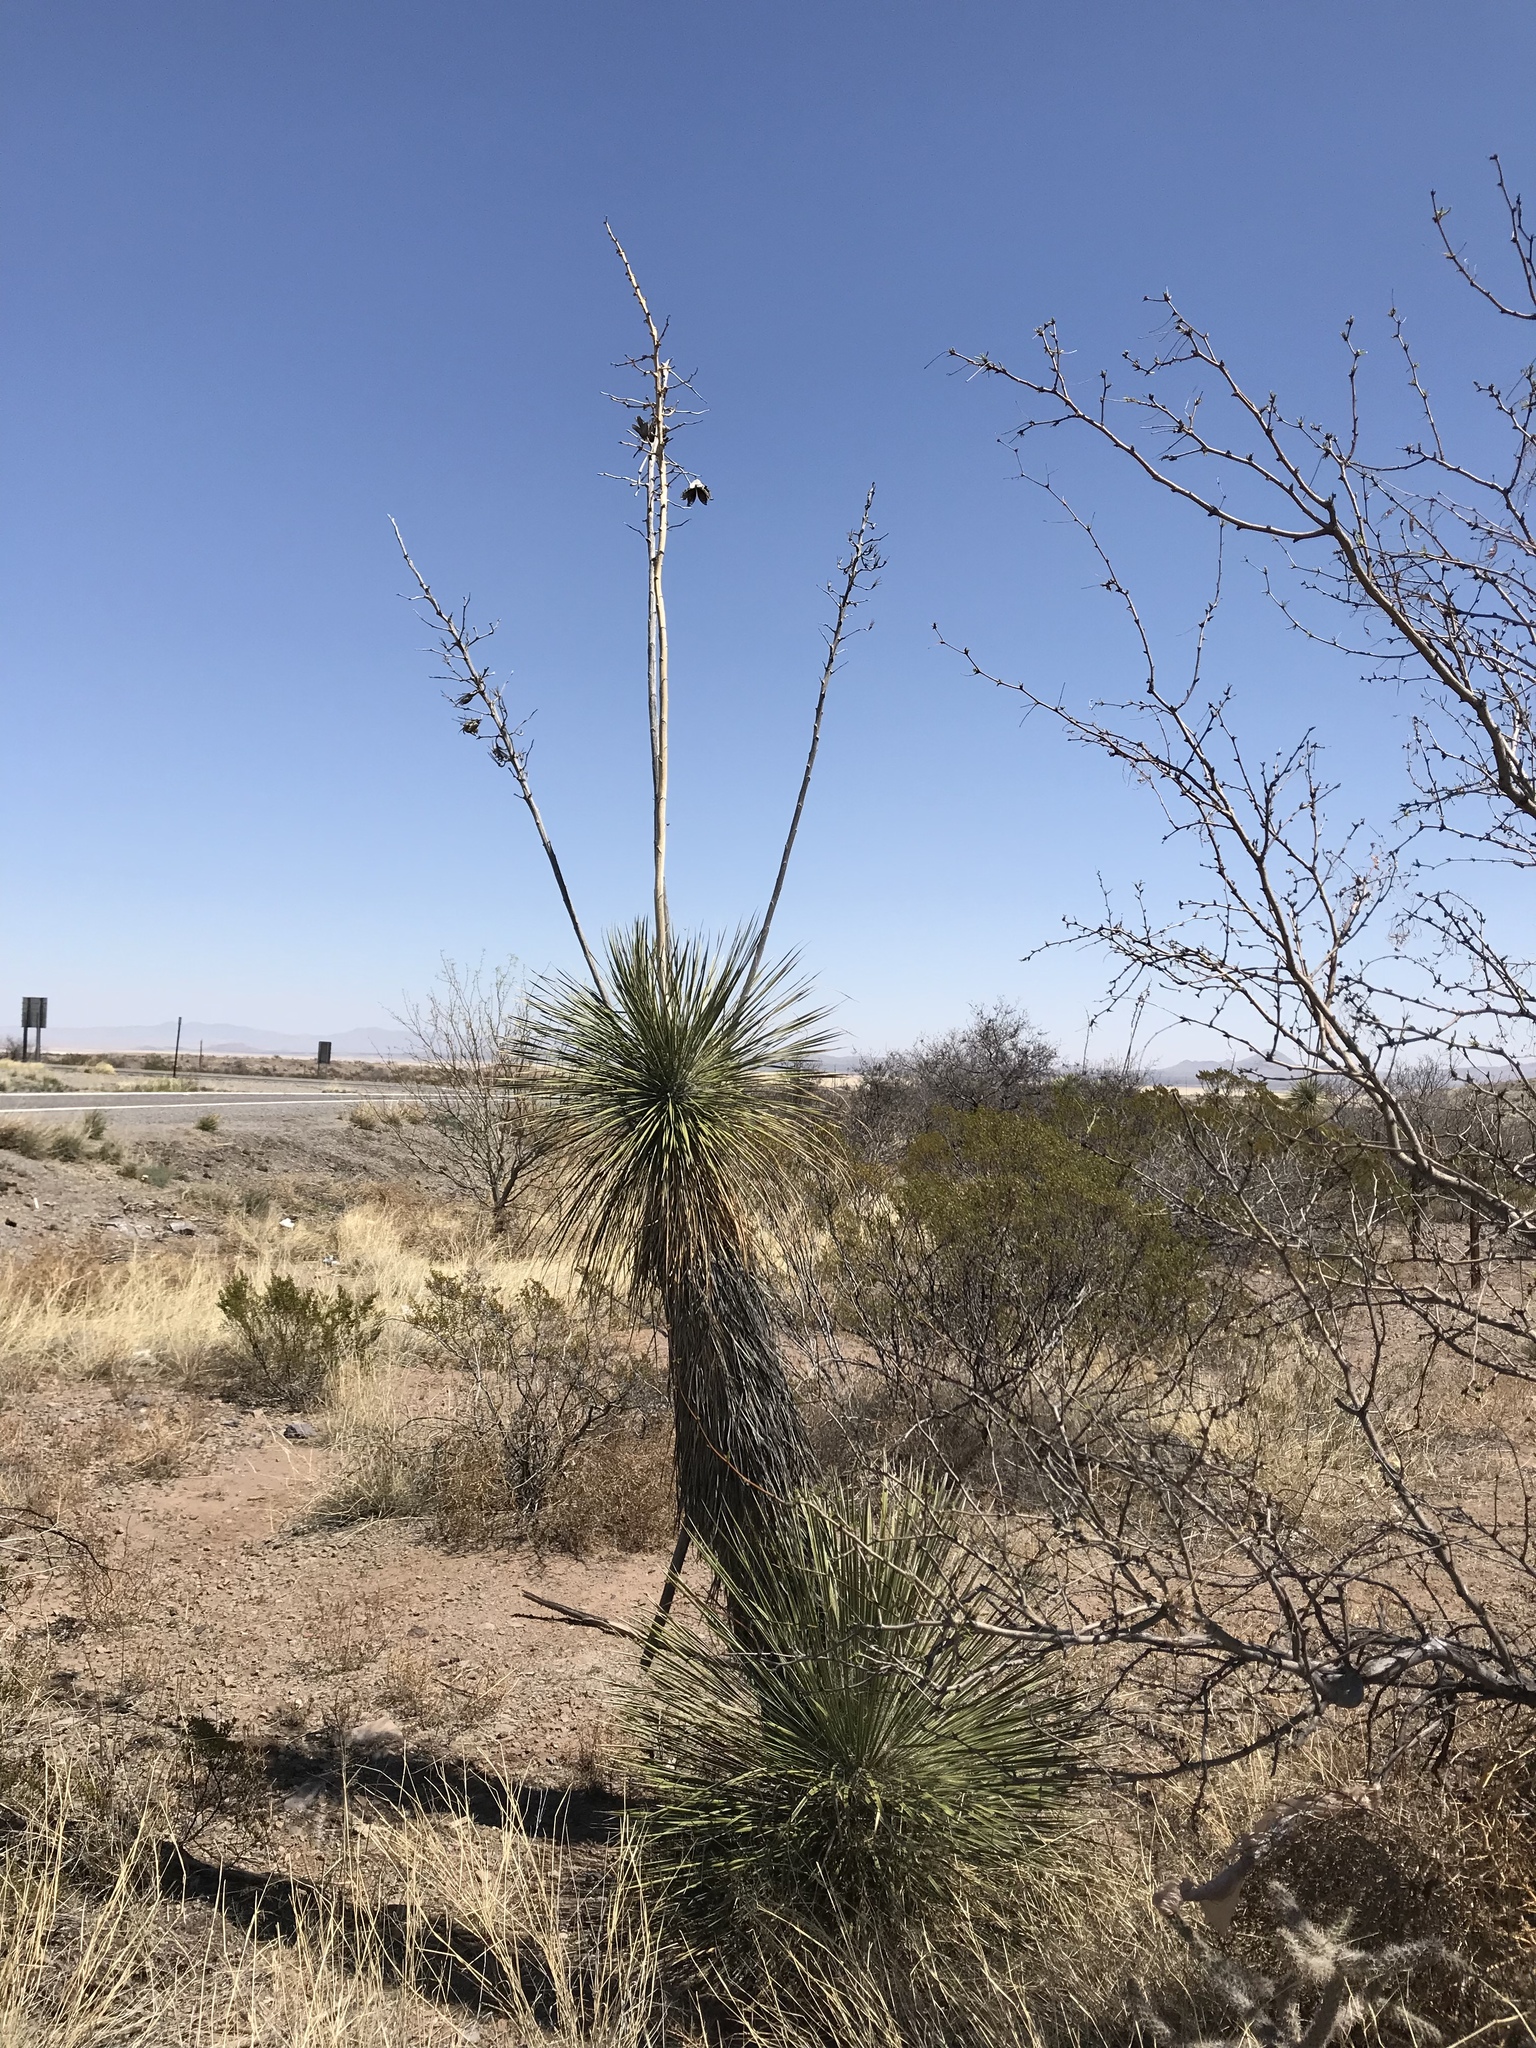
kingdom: Plantae
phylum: Tracheophyta
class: Liliopsida
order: Asparagales
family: Asparagaceae
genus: Yucca
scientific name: Yucca elata
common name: Palmella
